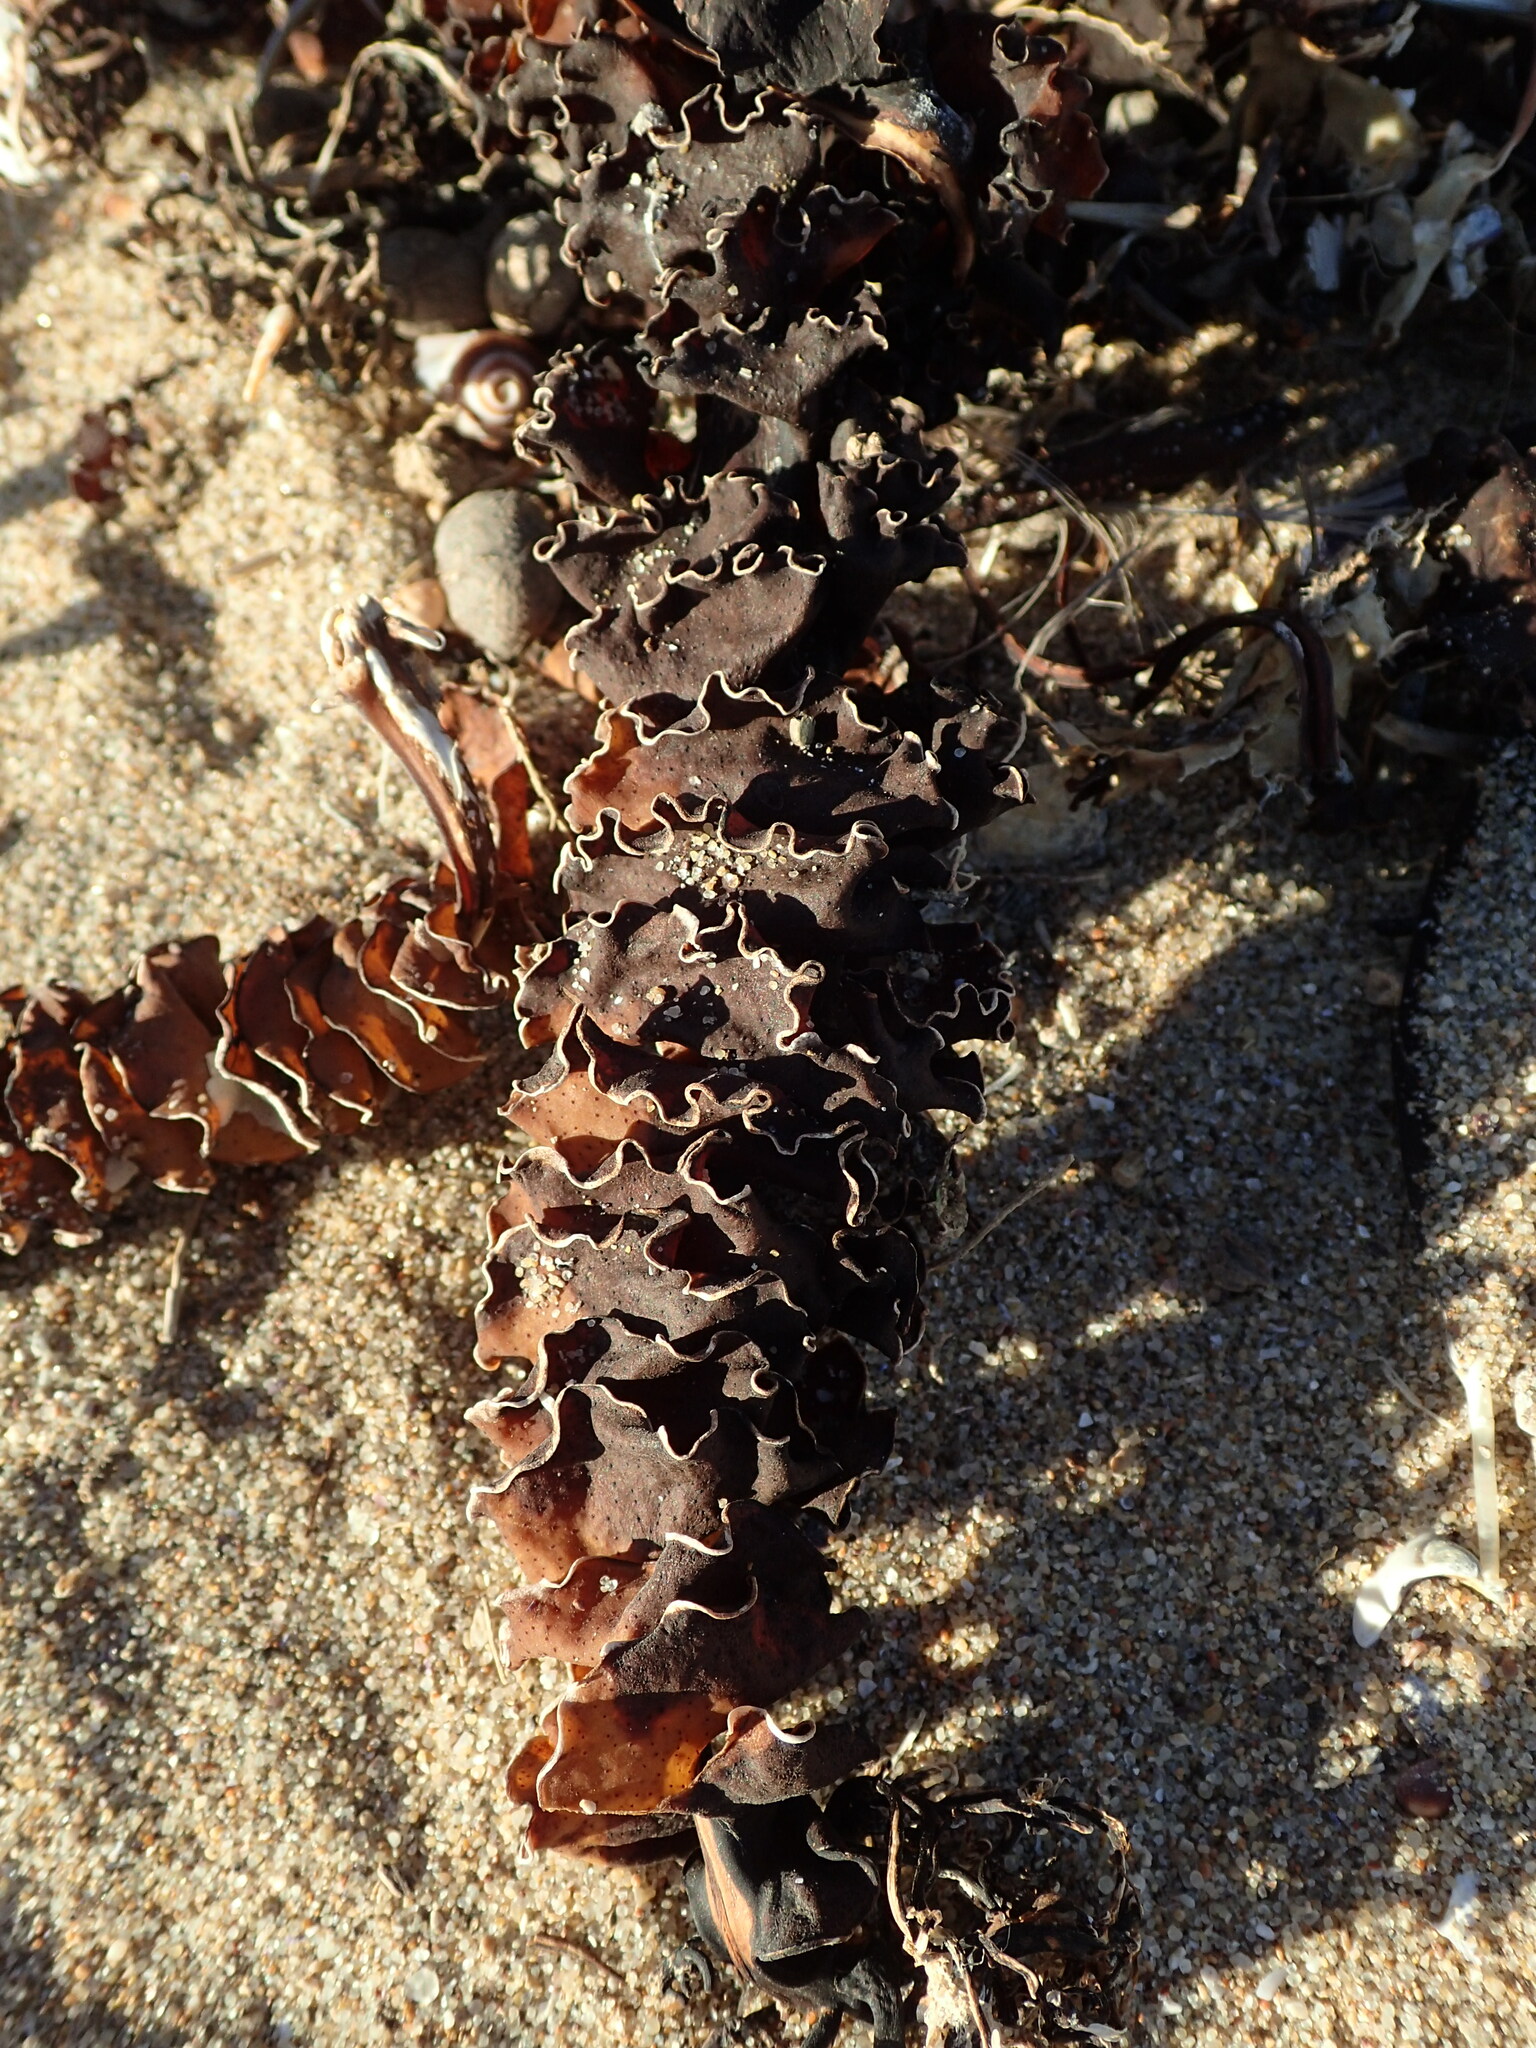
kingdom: Chromista
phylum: Ochrophyta
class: Phaeophyceae
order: Laminariales
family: Alariaceae
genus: Undaria
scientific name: Undaria pinnatifida
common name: Asian kelp
